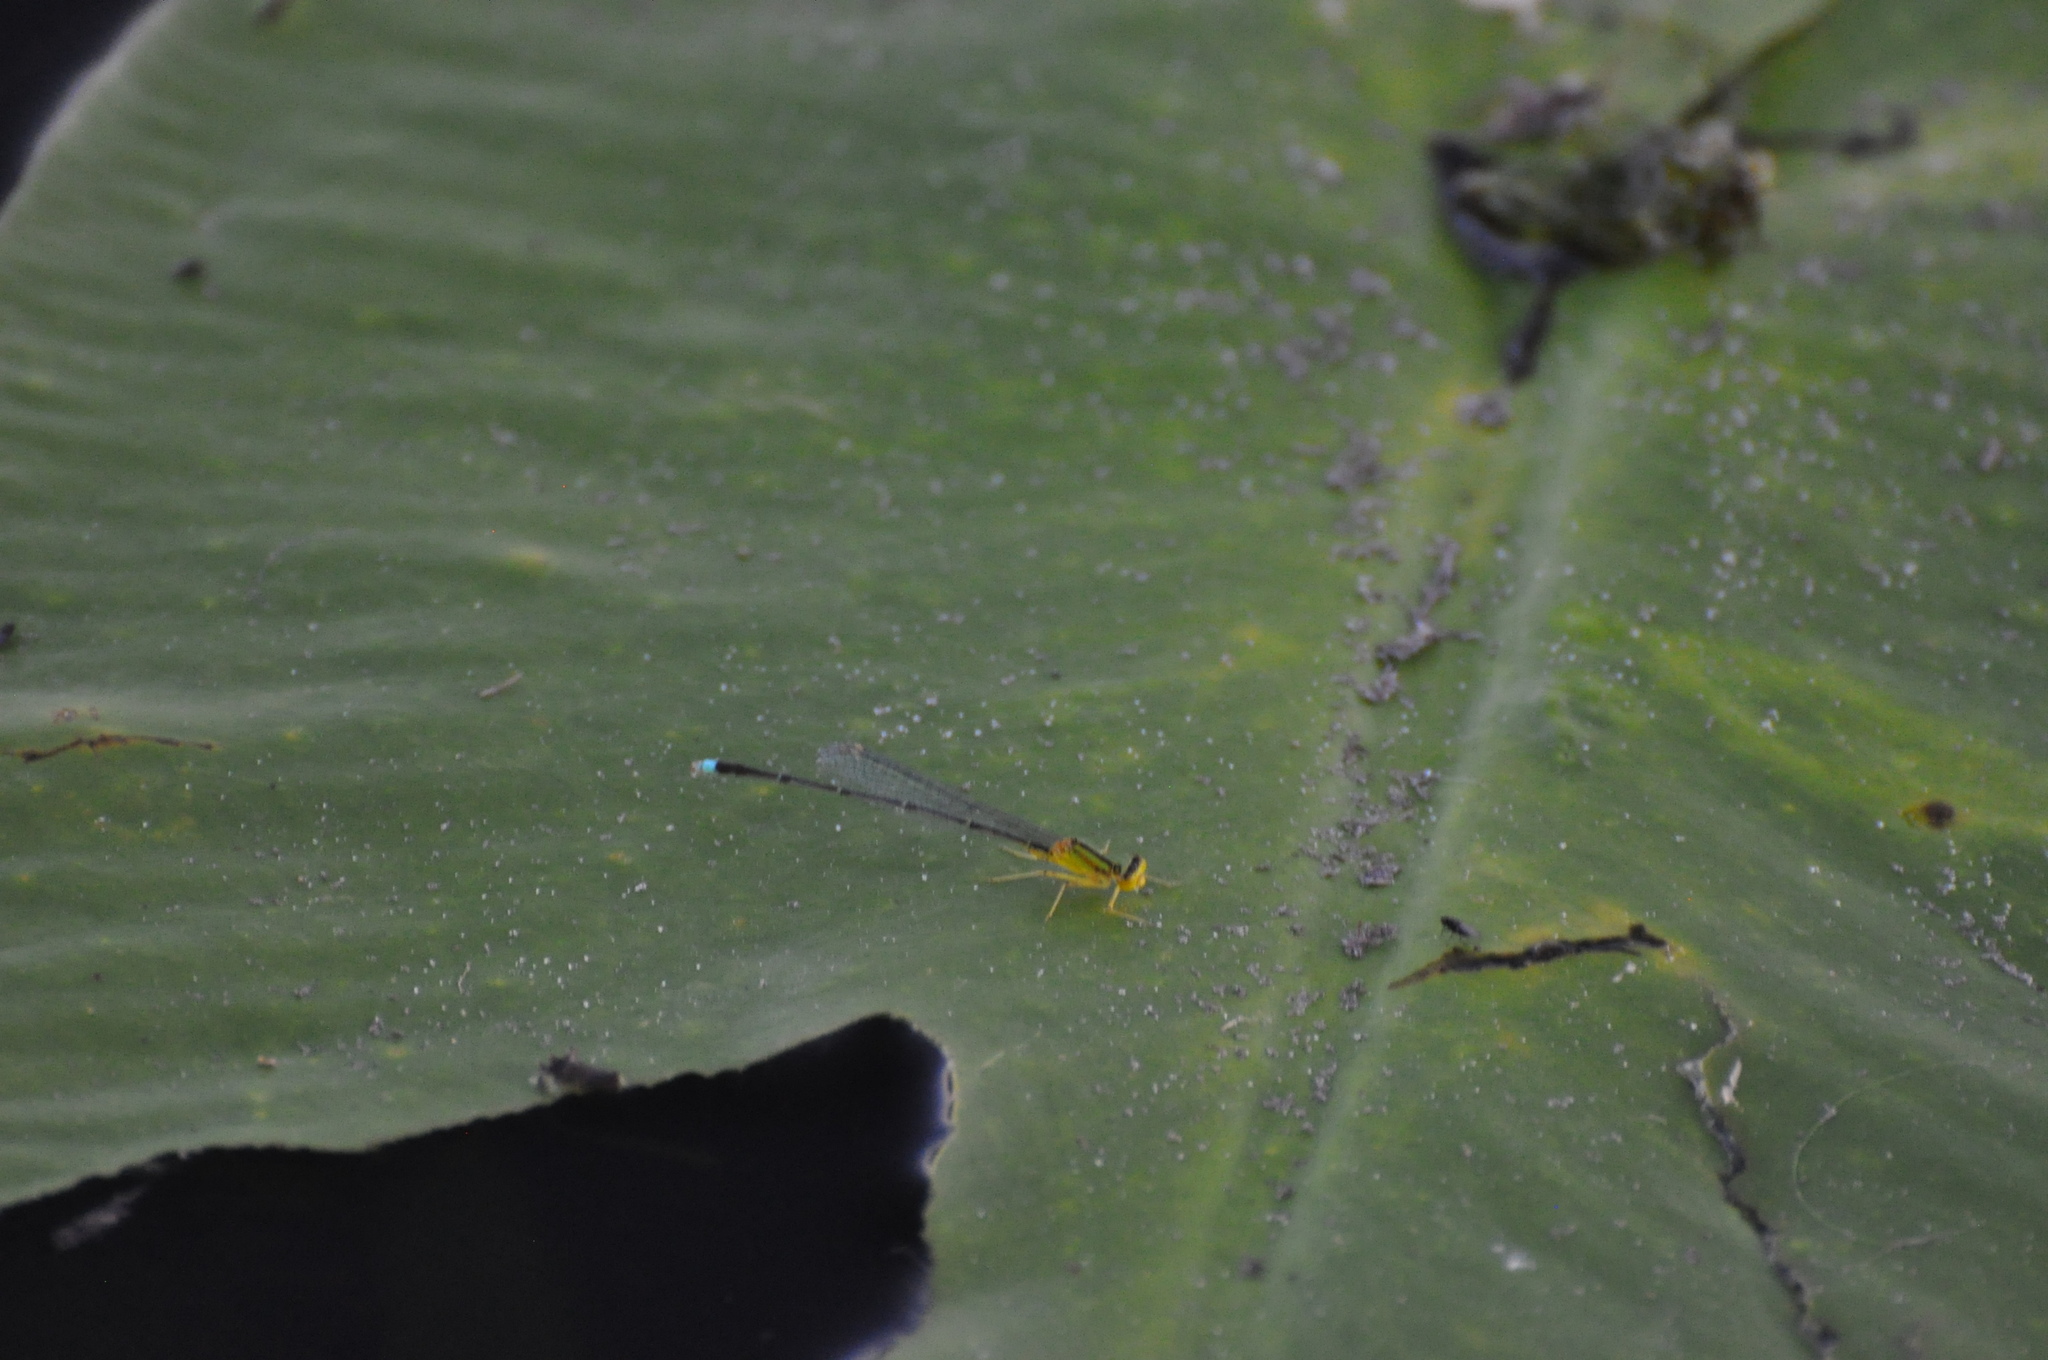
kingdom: Animalia
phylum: Arthropoda
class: Insecta
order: Odonata
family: Coenagrionidae
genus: Enallagma
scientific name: Enallagma vesperum
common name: Vesper bluet
